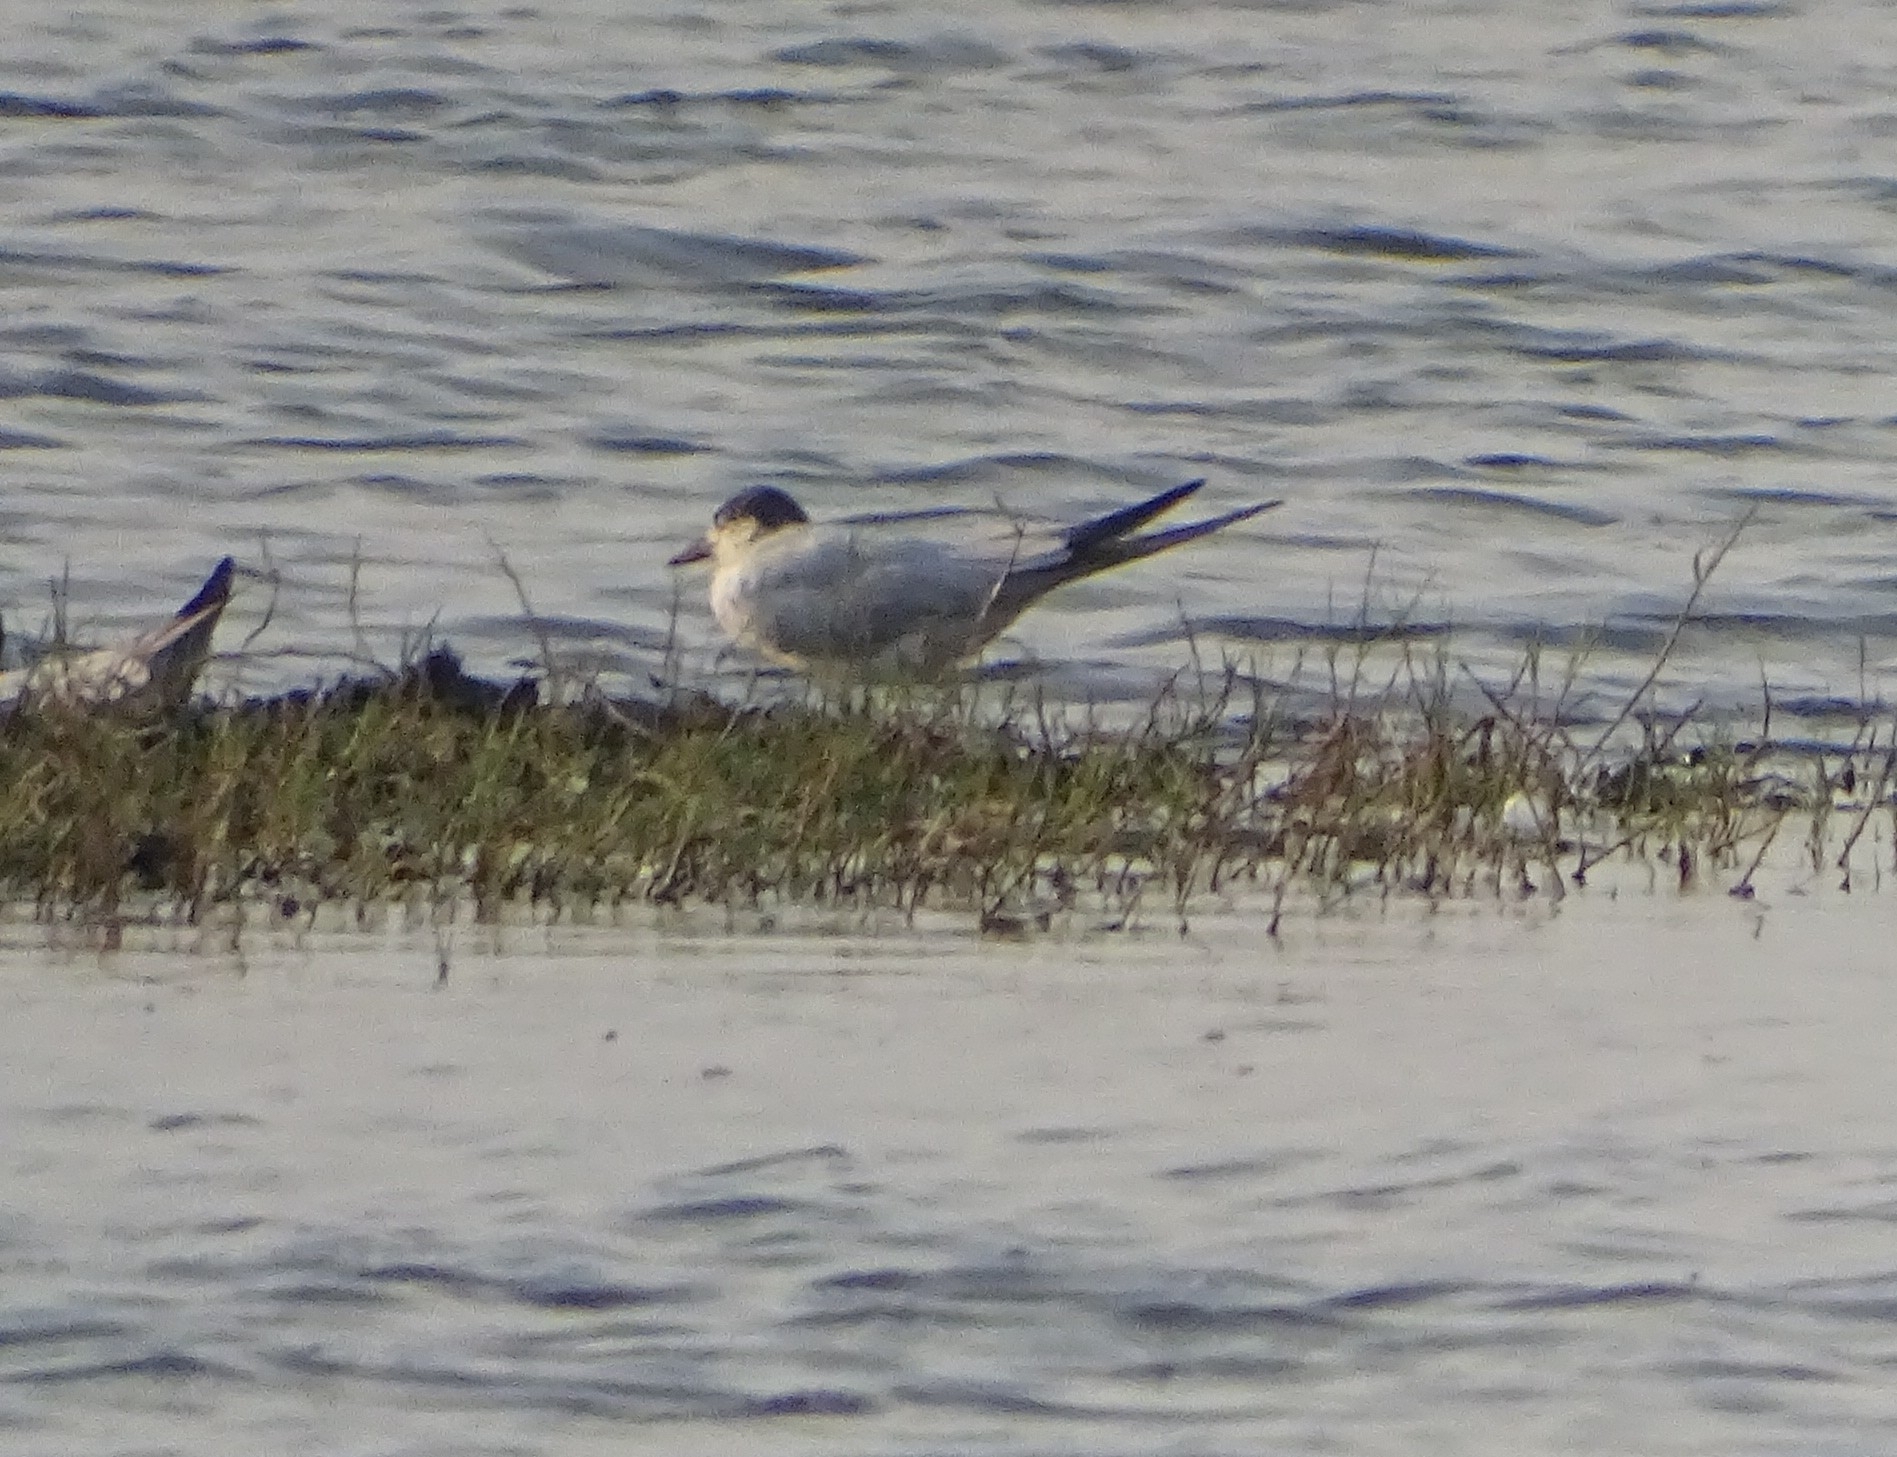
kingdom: Animalia
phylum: Chordata
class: Aves
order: Charadriiformes
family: Laridae
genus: Gelochelidon
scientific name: Gelochelidon nilotica
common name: Gull-billed tern
